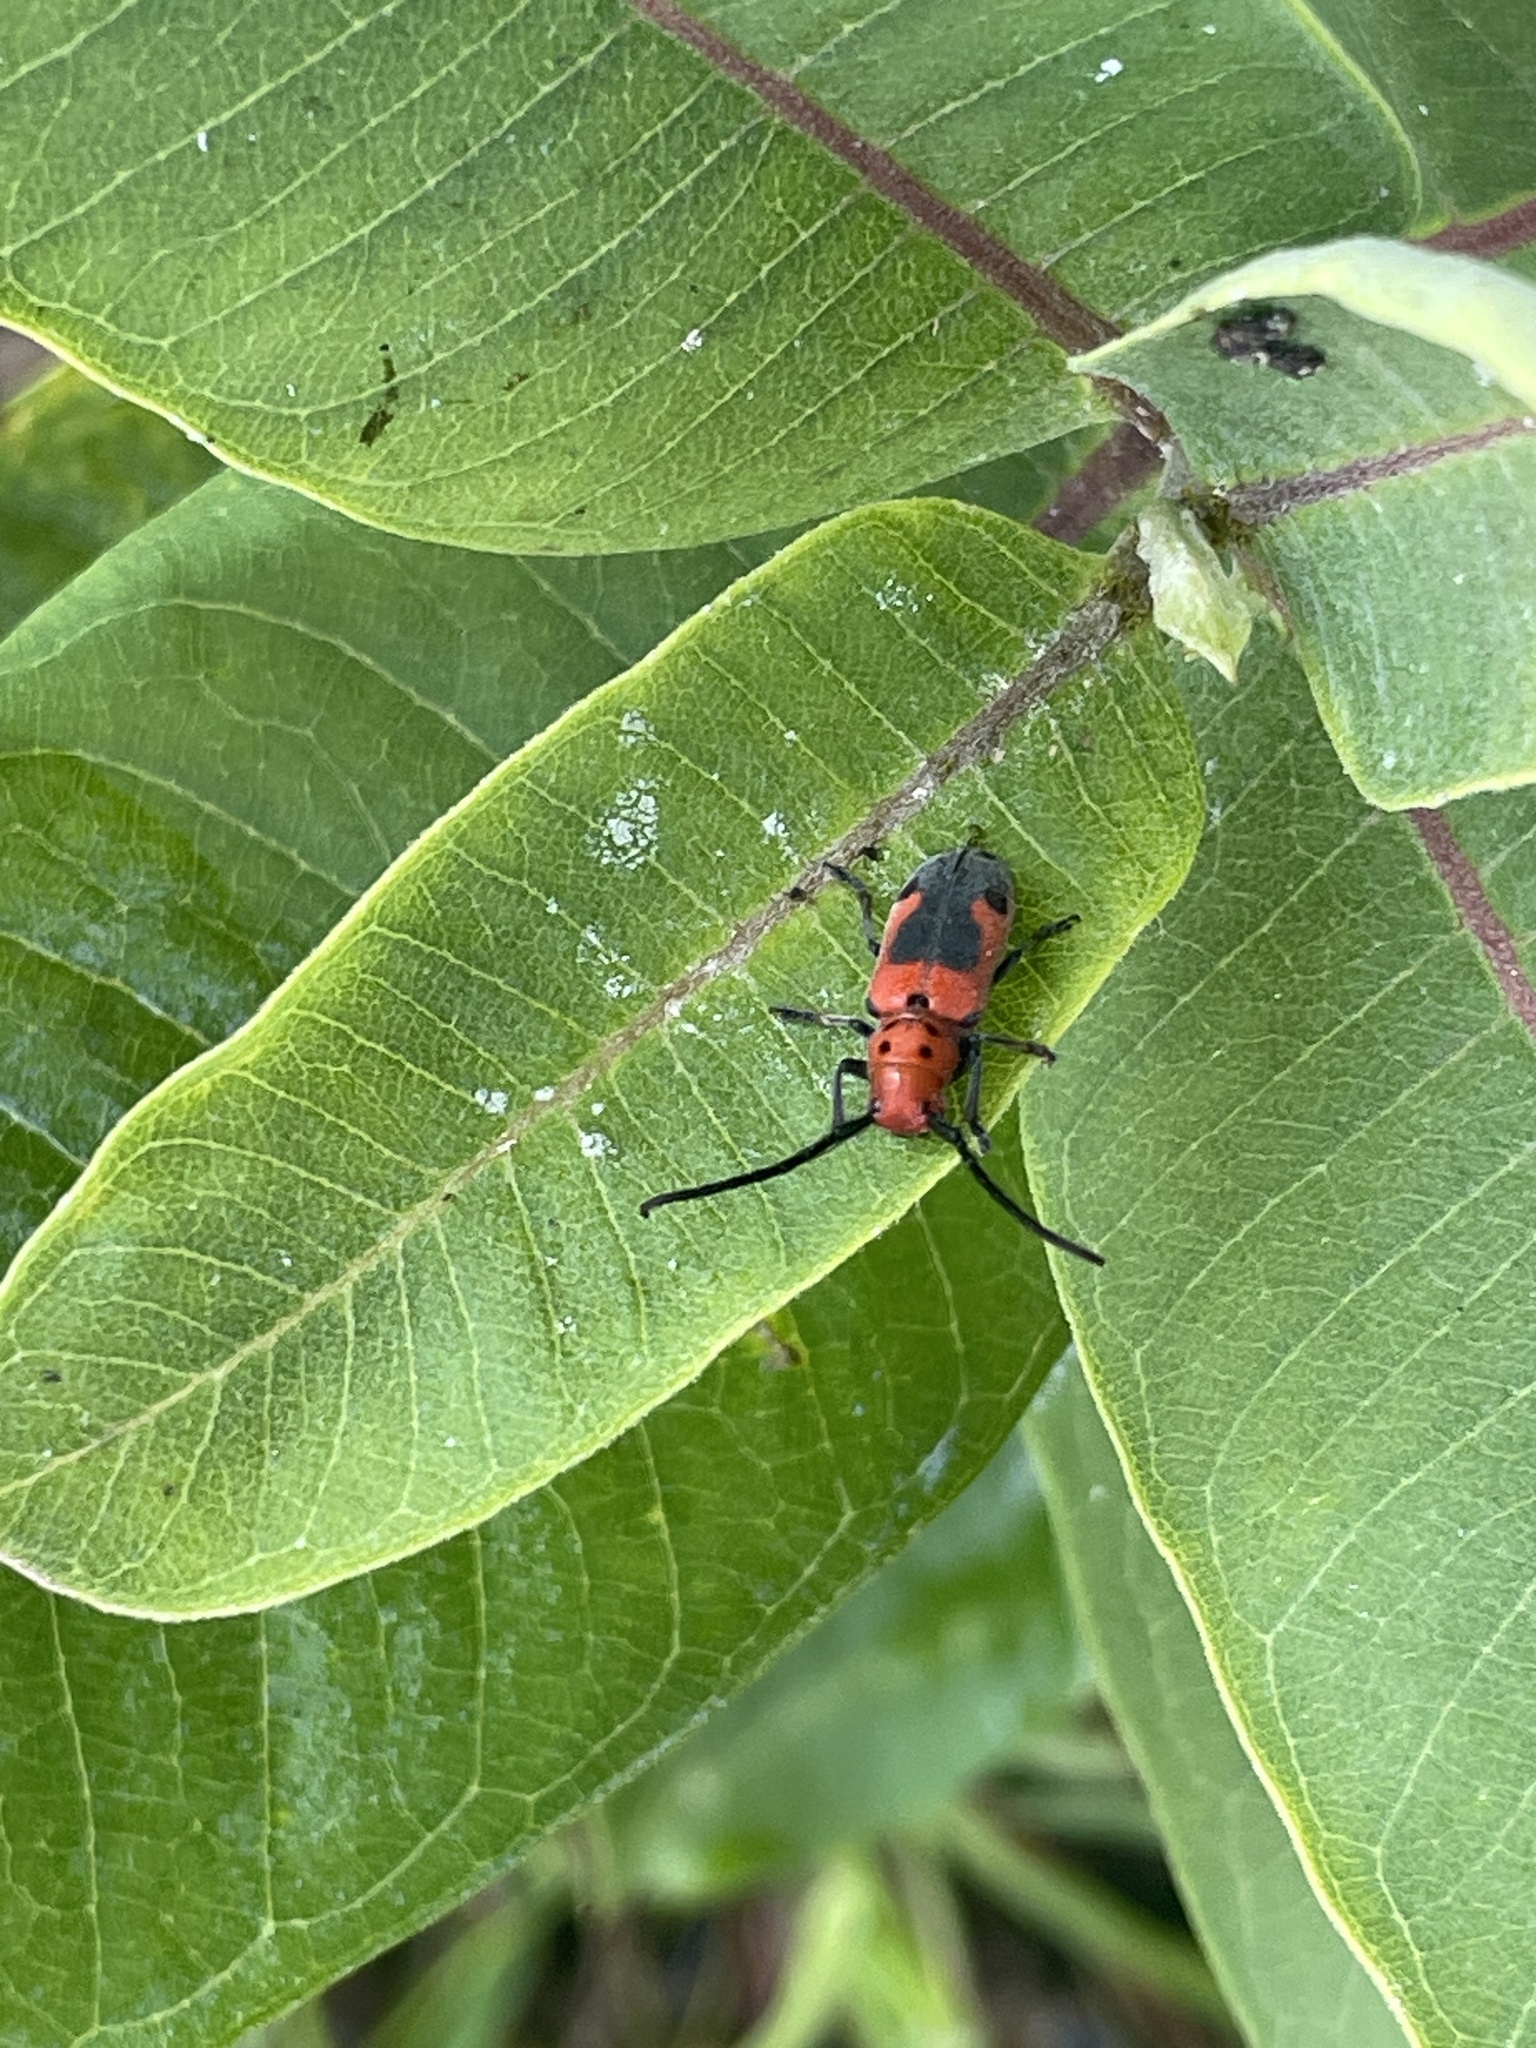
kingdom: Animalia
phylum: Arthropoda
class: Insecta
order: Coleoptera
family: Cerambycidae
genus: Tetraopes
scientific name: Tetraopes melanurus
